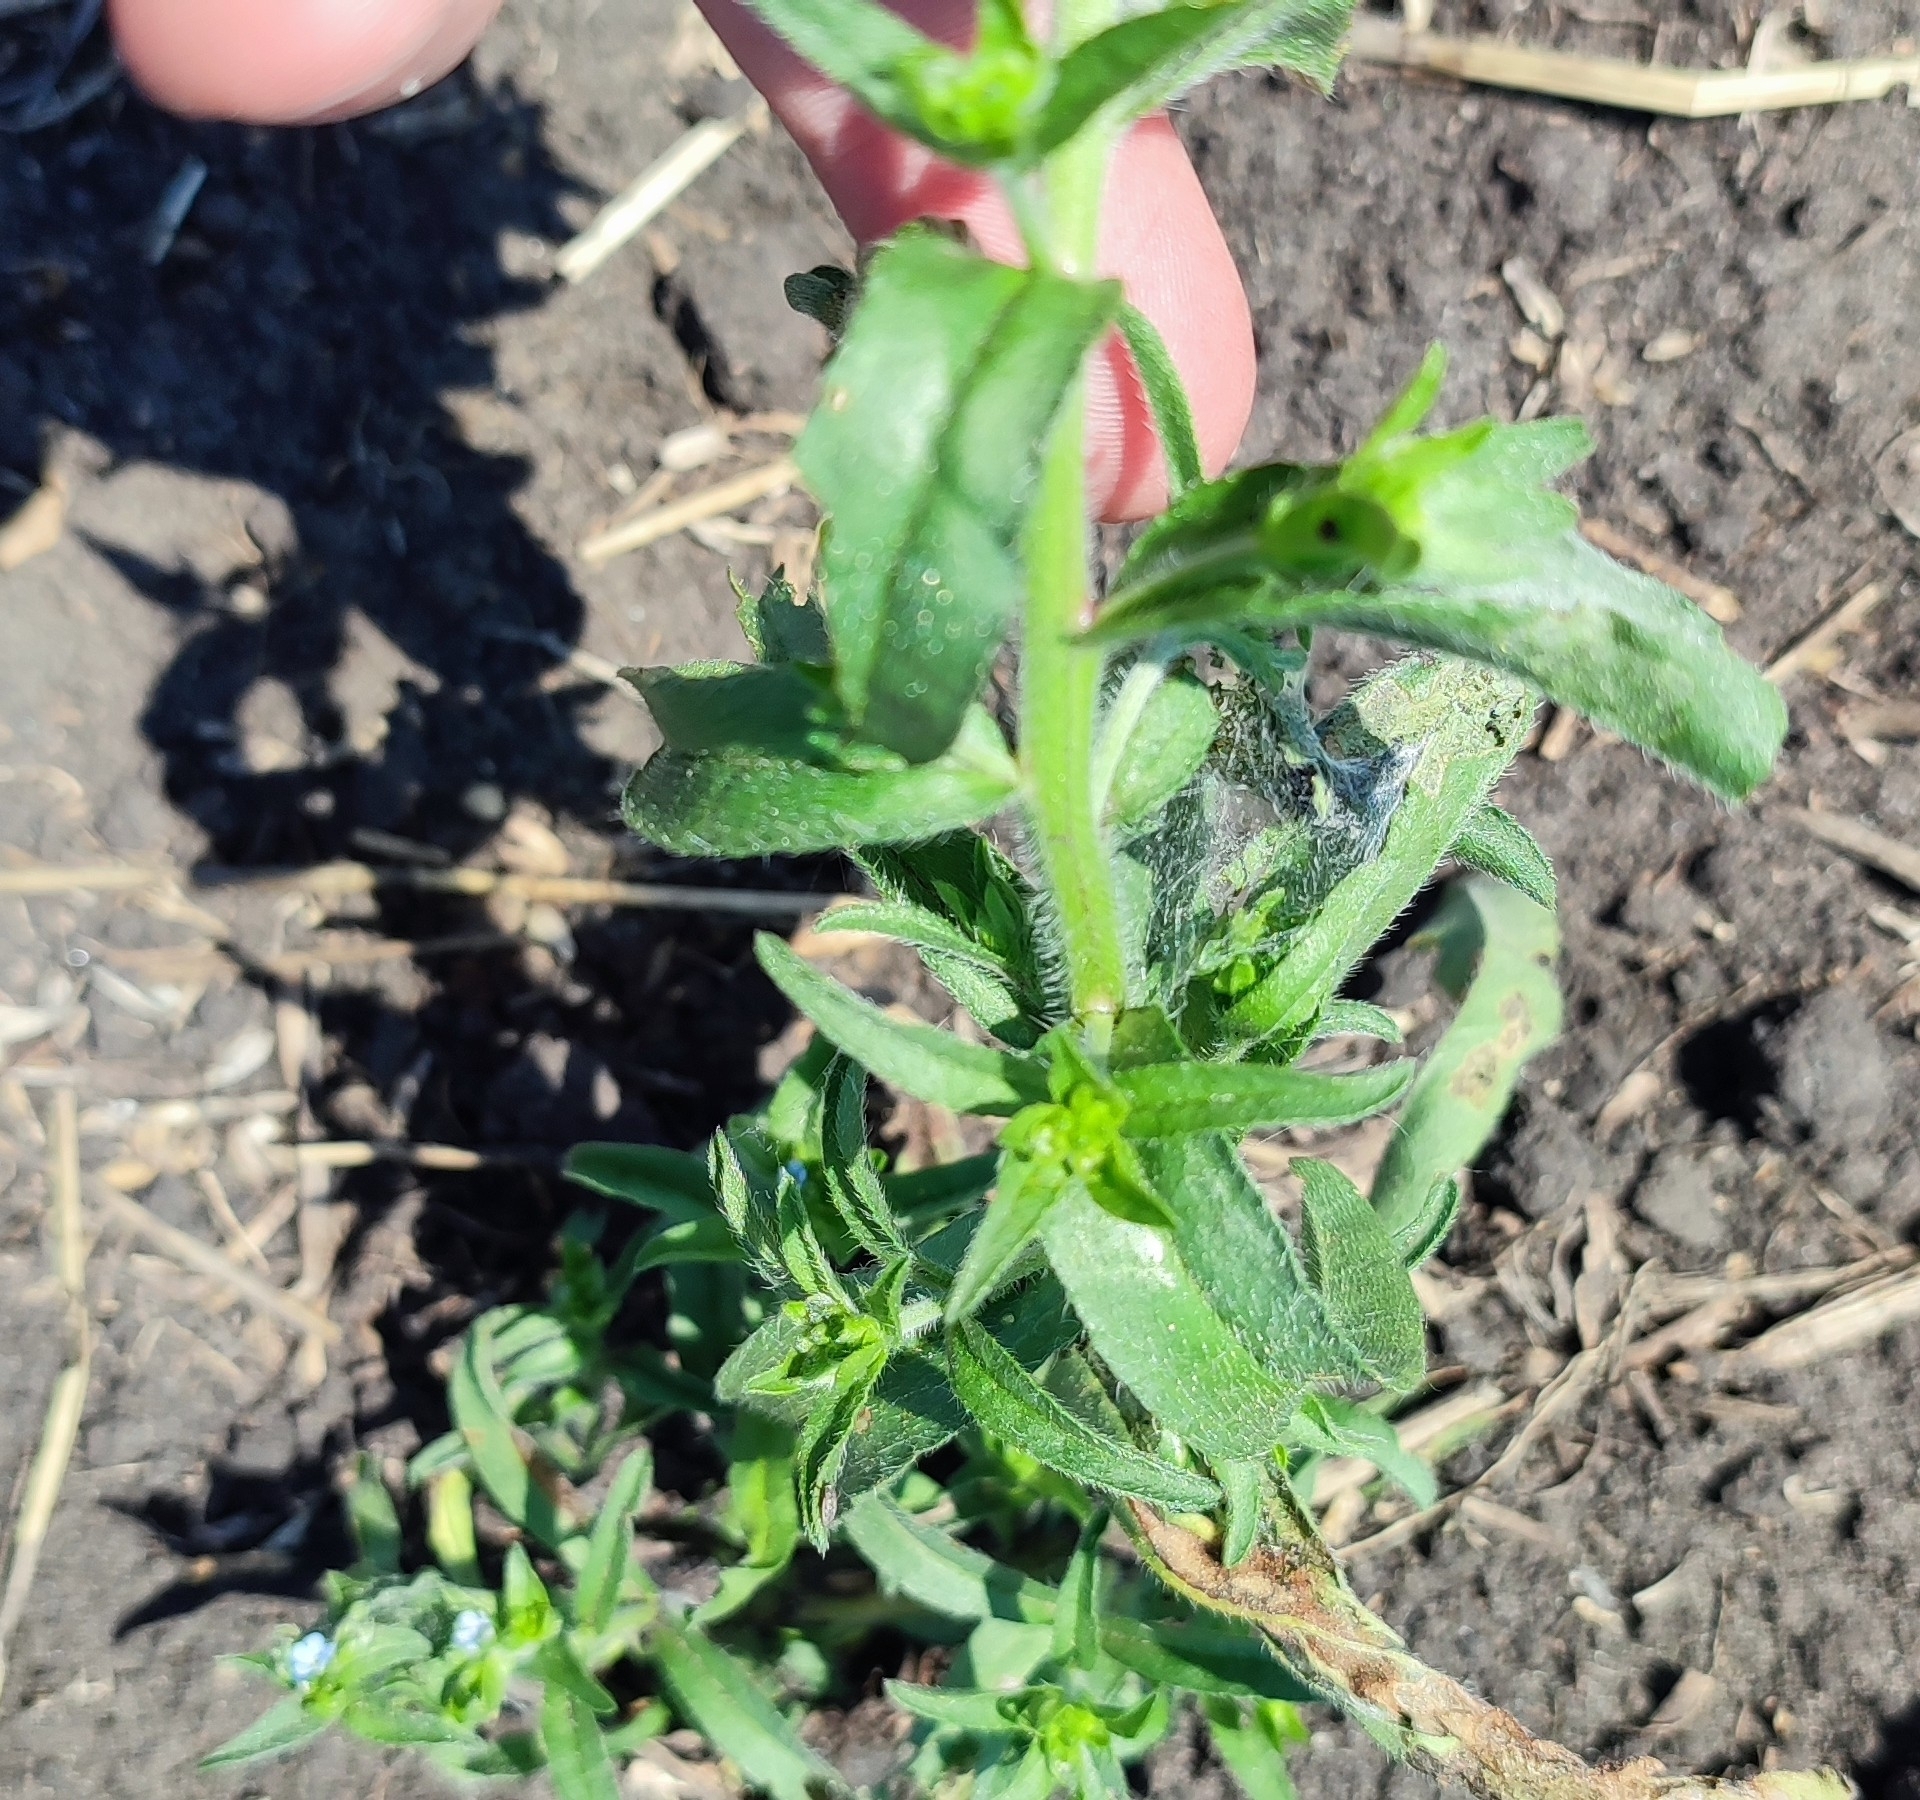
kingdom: Plantae
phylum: Tracheophyta
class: Magnoliopsida
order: Boraginales
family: Boraginaceae
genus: Lappula
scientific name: Lappula squarrosa
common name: European stickseed
